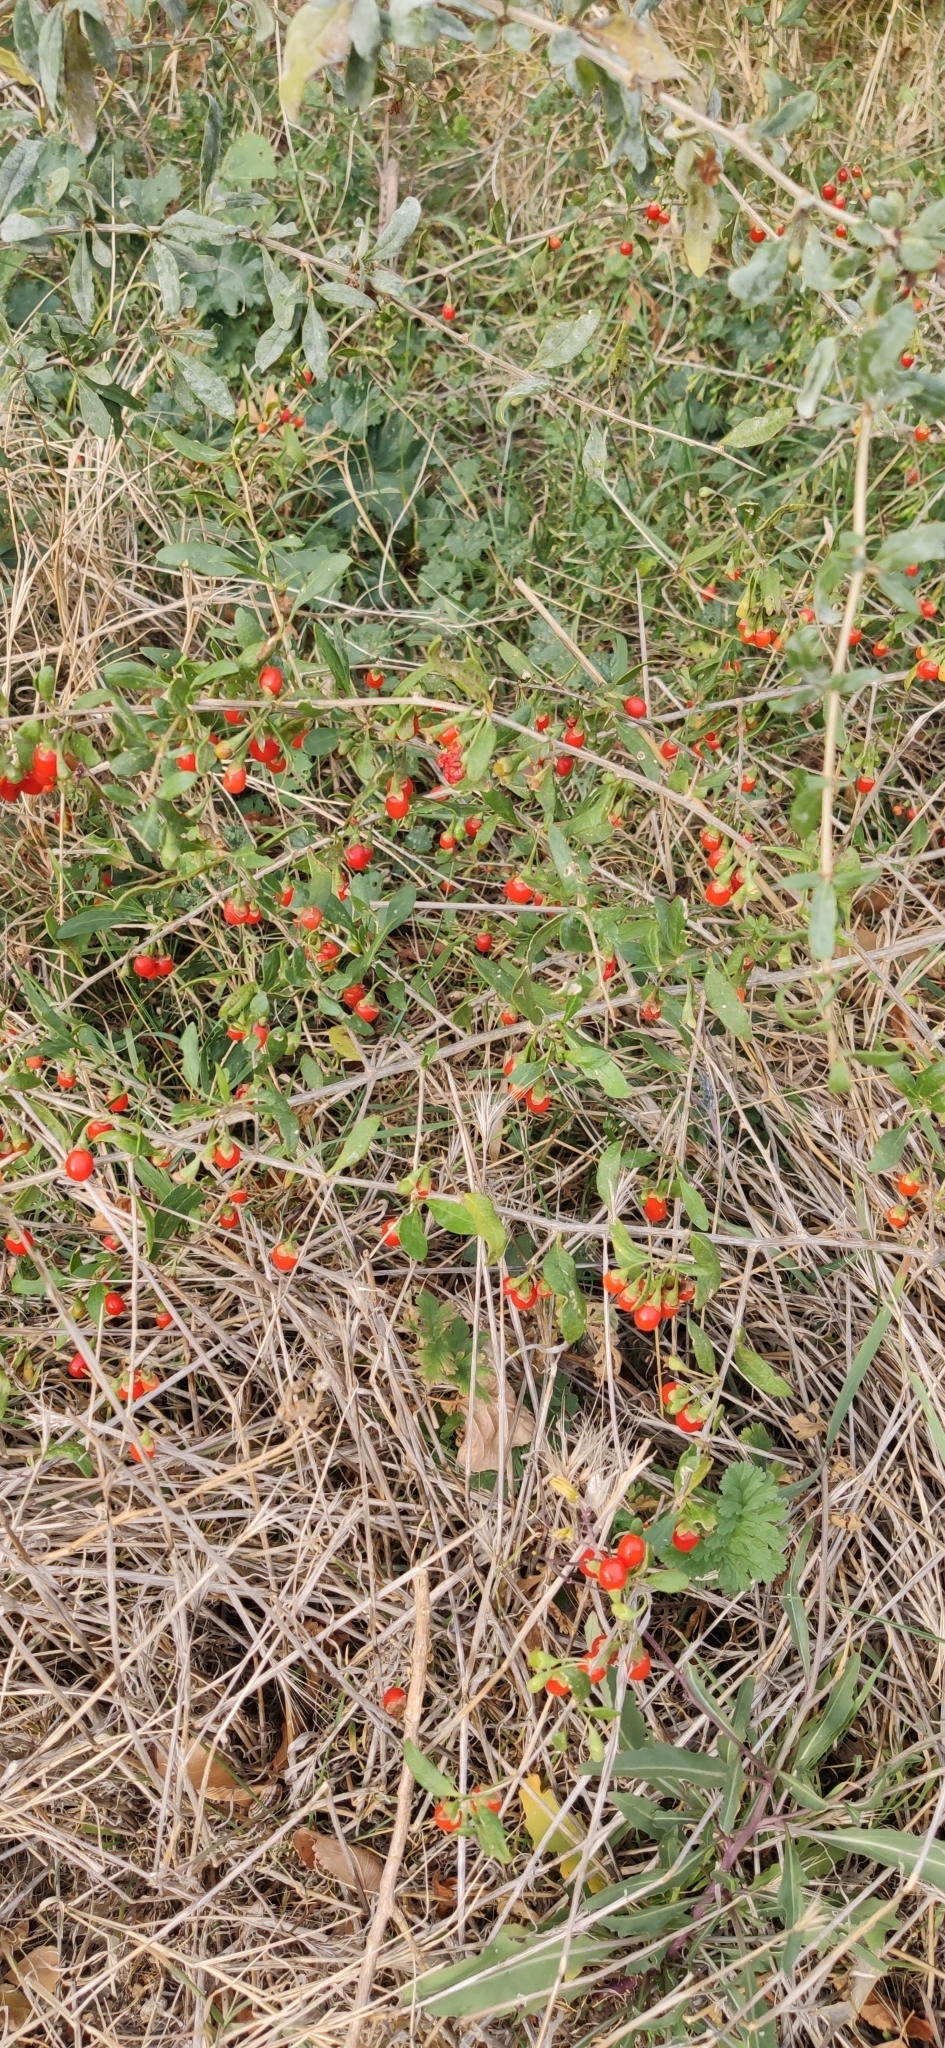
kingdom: Plantae
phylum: Tracheophyta
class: Magnoliopsida
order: Solanales
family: Solanaceae
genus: Lycium
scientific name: Lycium barbarum
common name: Duke of argyll's teaplant
